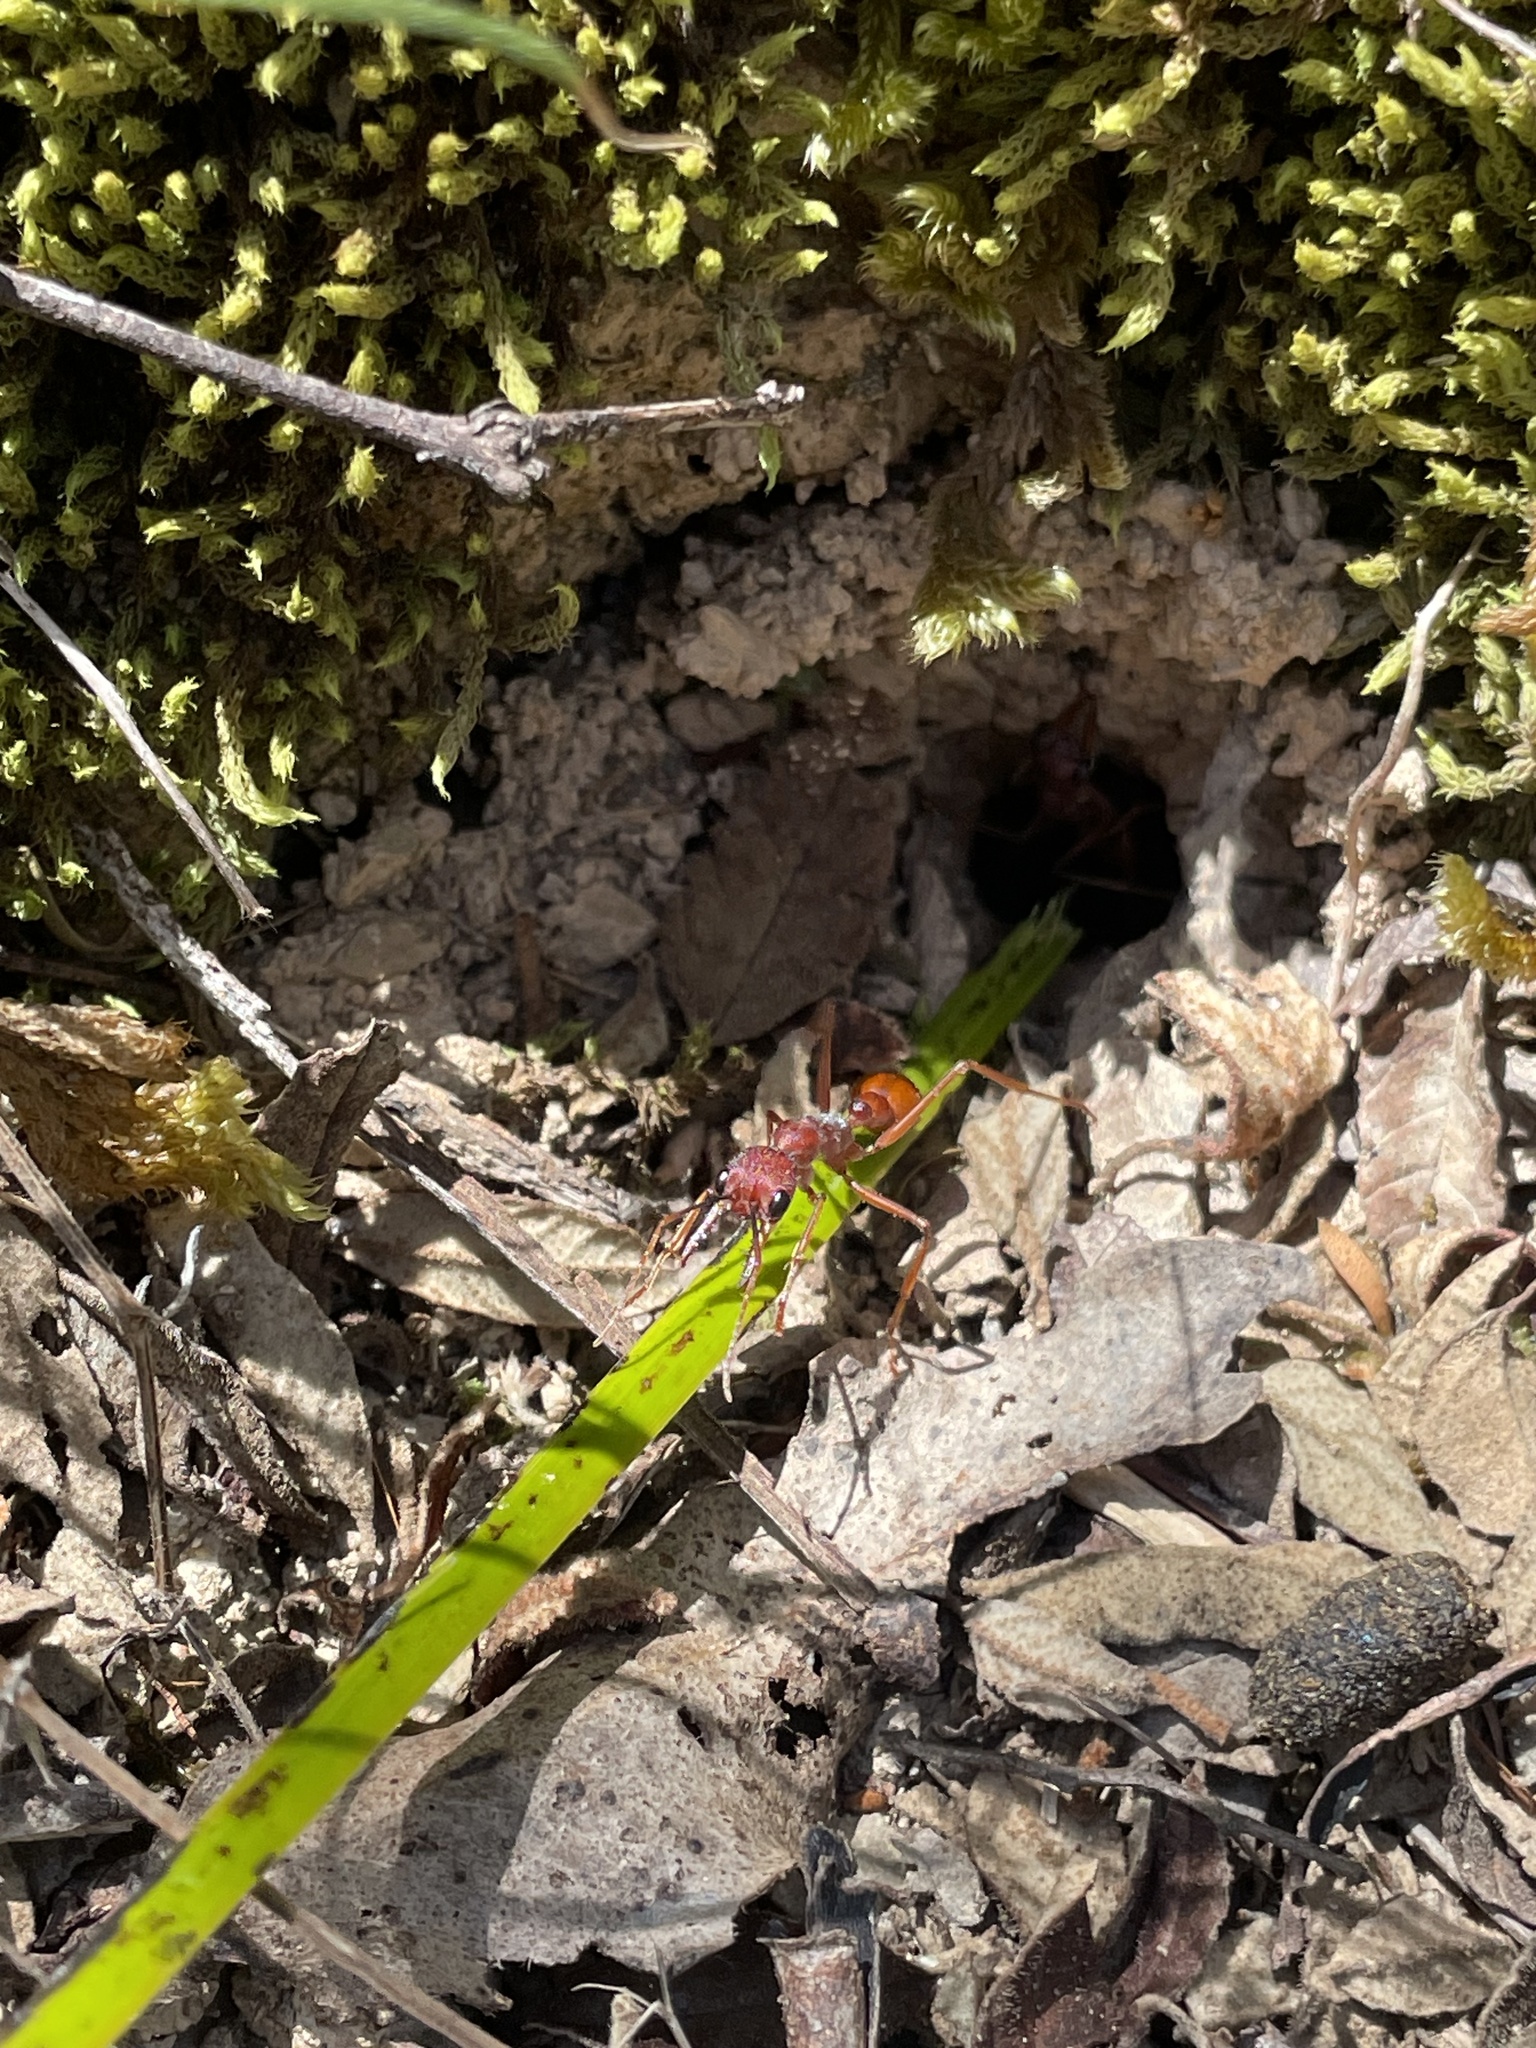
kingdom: Animalia
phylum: Arthropoda
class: Insecta
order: Hymenoptera
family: Formicidae
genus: Myrmecia
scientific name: Myrmecia nigriscapa
